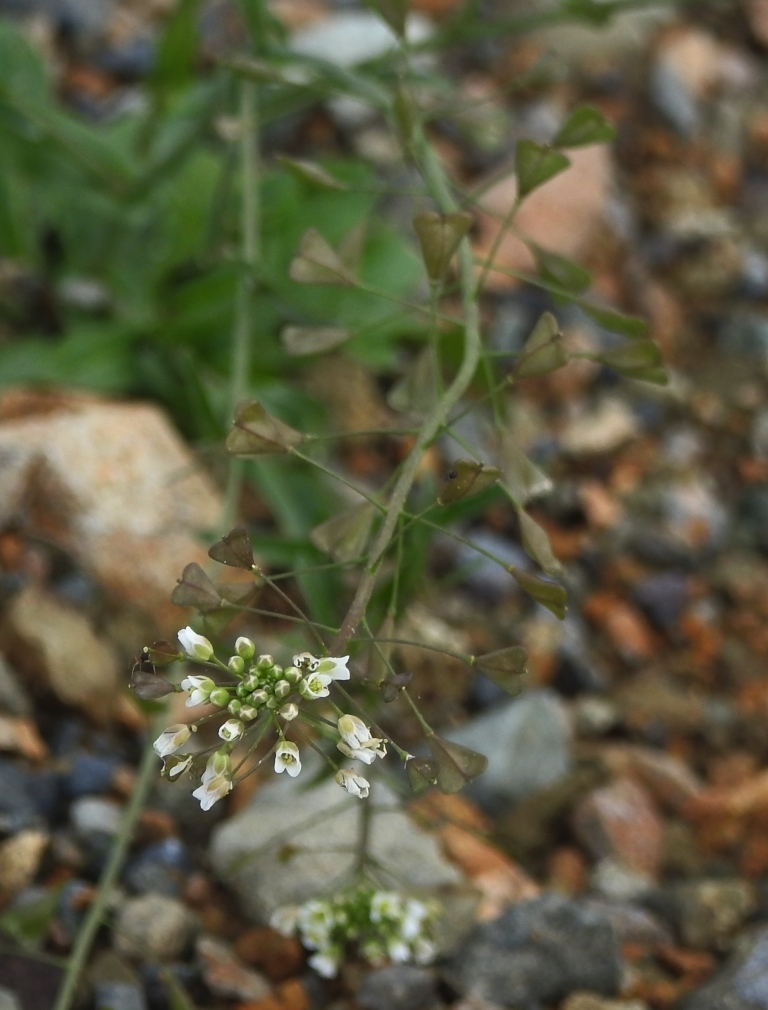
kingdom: Plantae
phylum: Tracheophyta
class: Magnoliopsida
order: Brassicales
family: Brassicaceae
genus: Capsella
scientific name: Capsella bursa-pastoris
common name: Shepherd's purse
